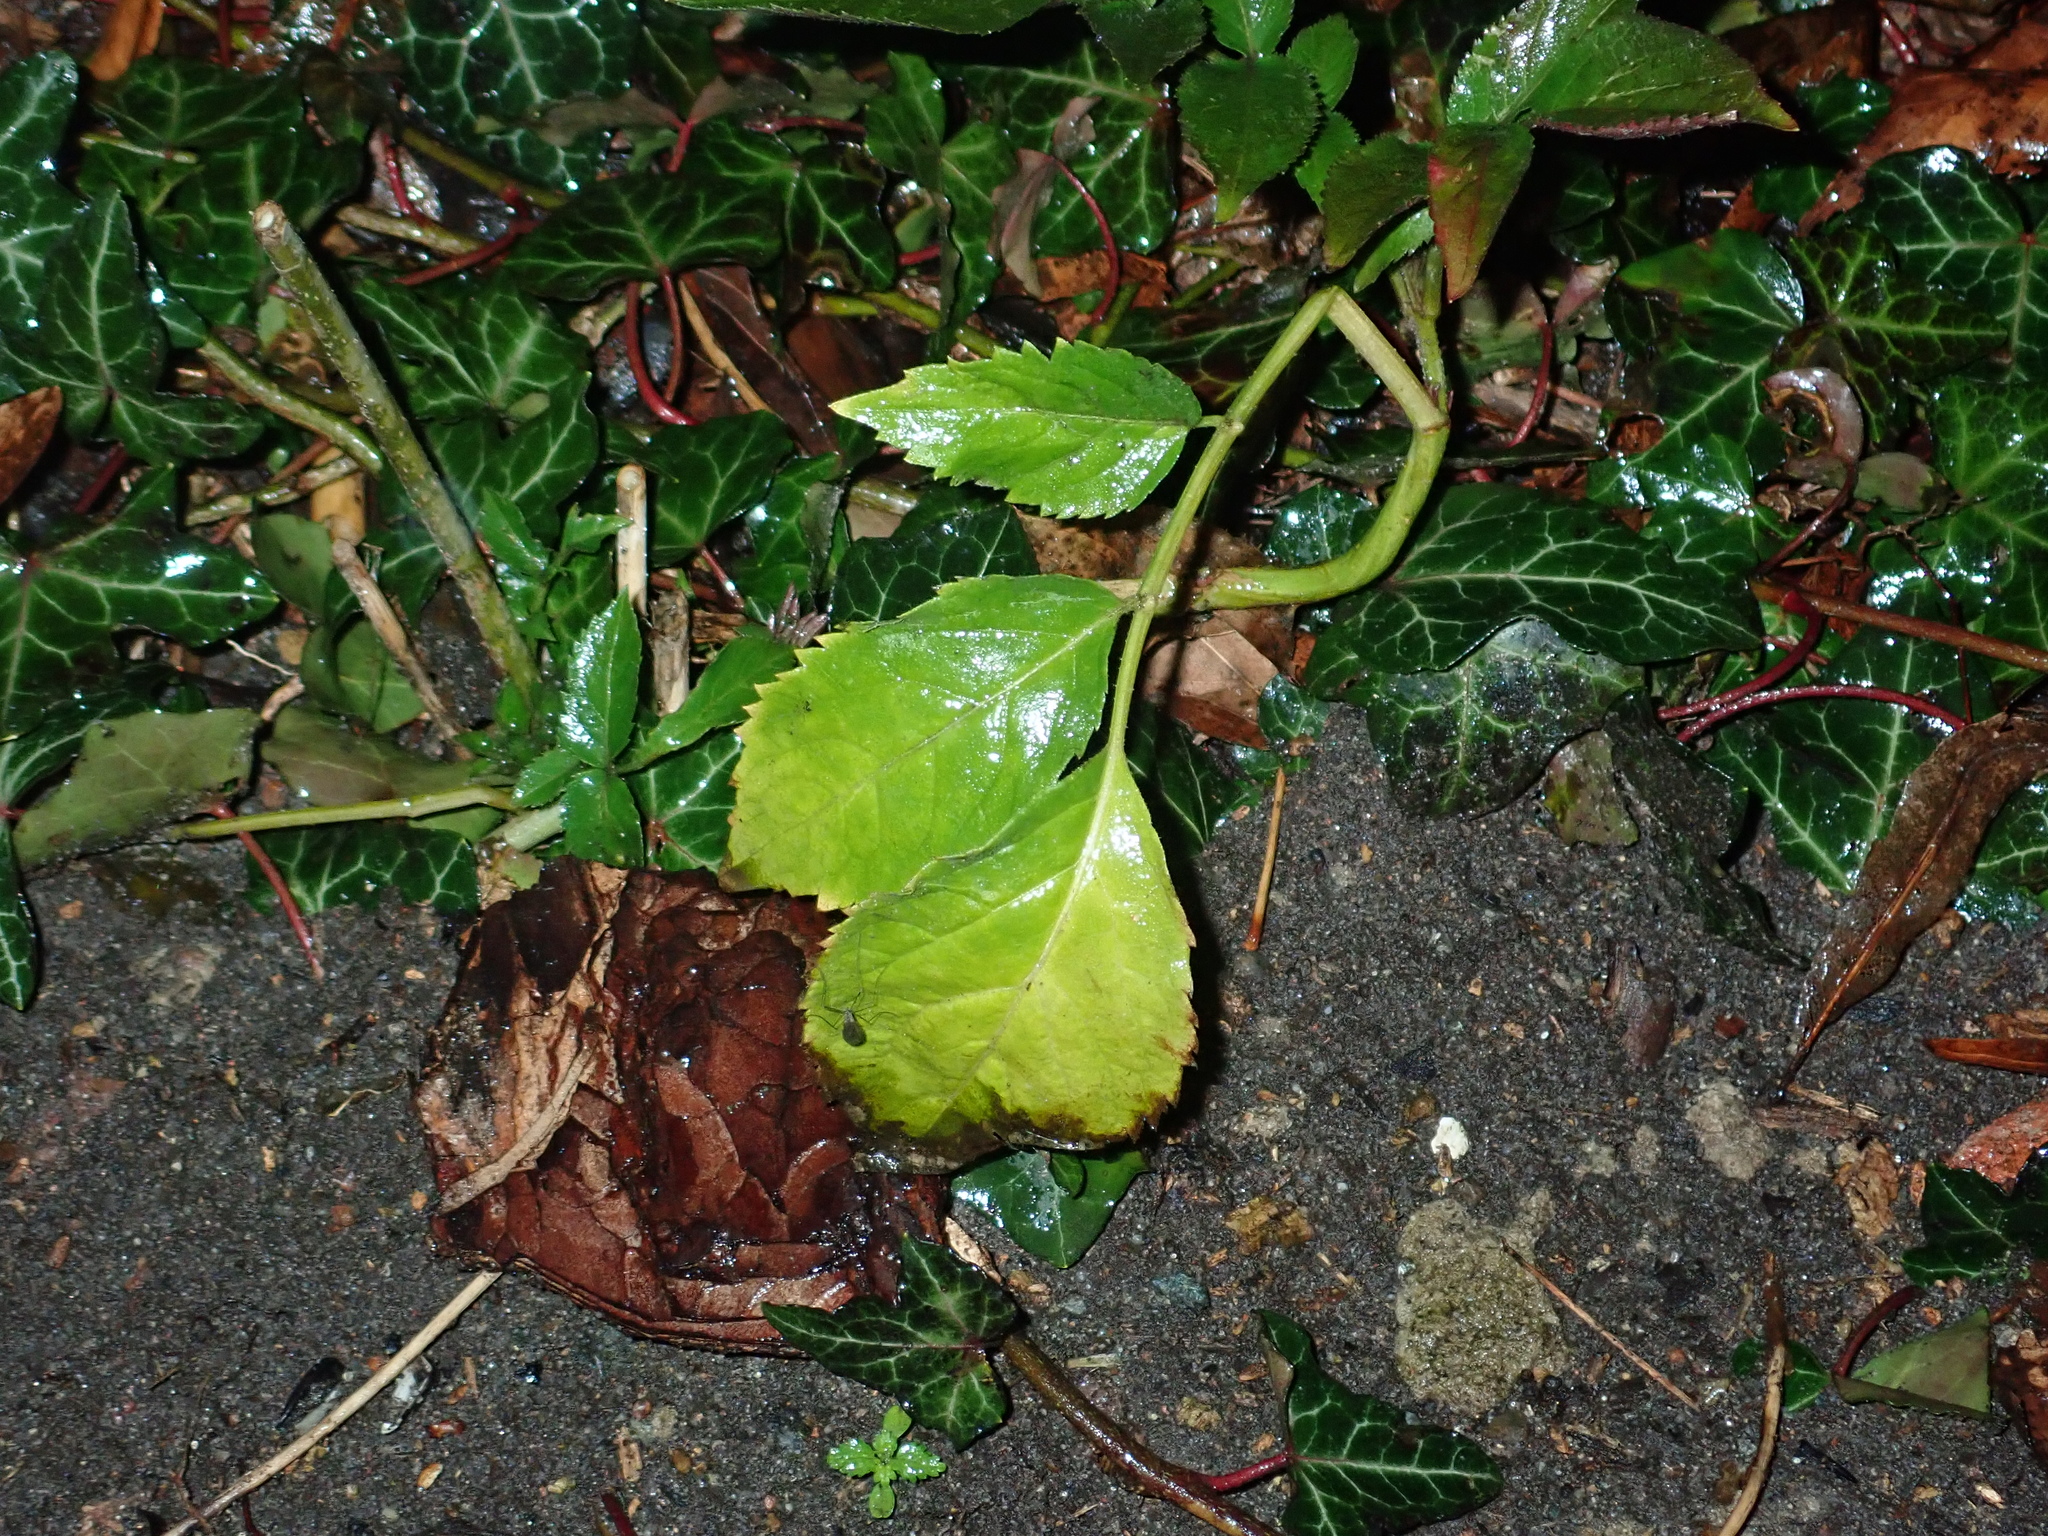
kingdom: Plantae
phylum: Tracheophyta
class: Magnoliopsida
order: Dipsacales
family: Viburnaceae
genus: Sambucus
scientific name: Sambucus nigra
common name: Elder
